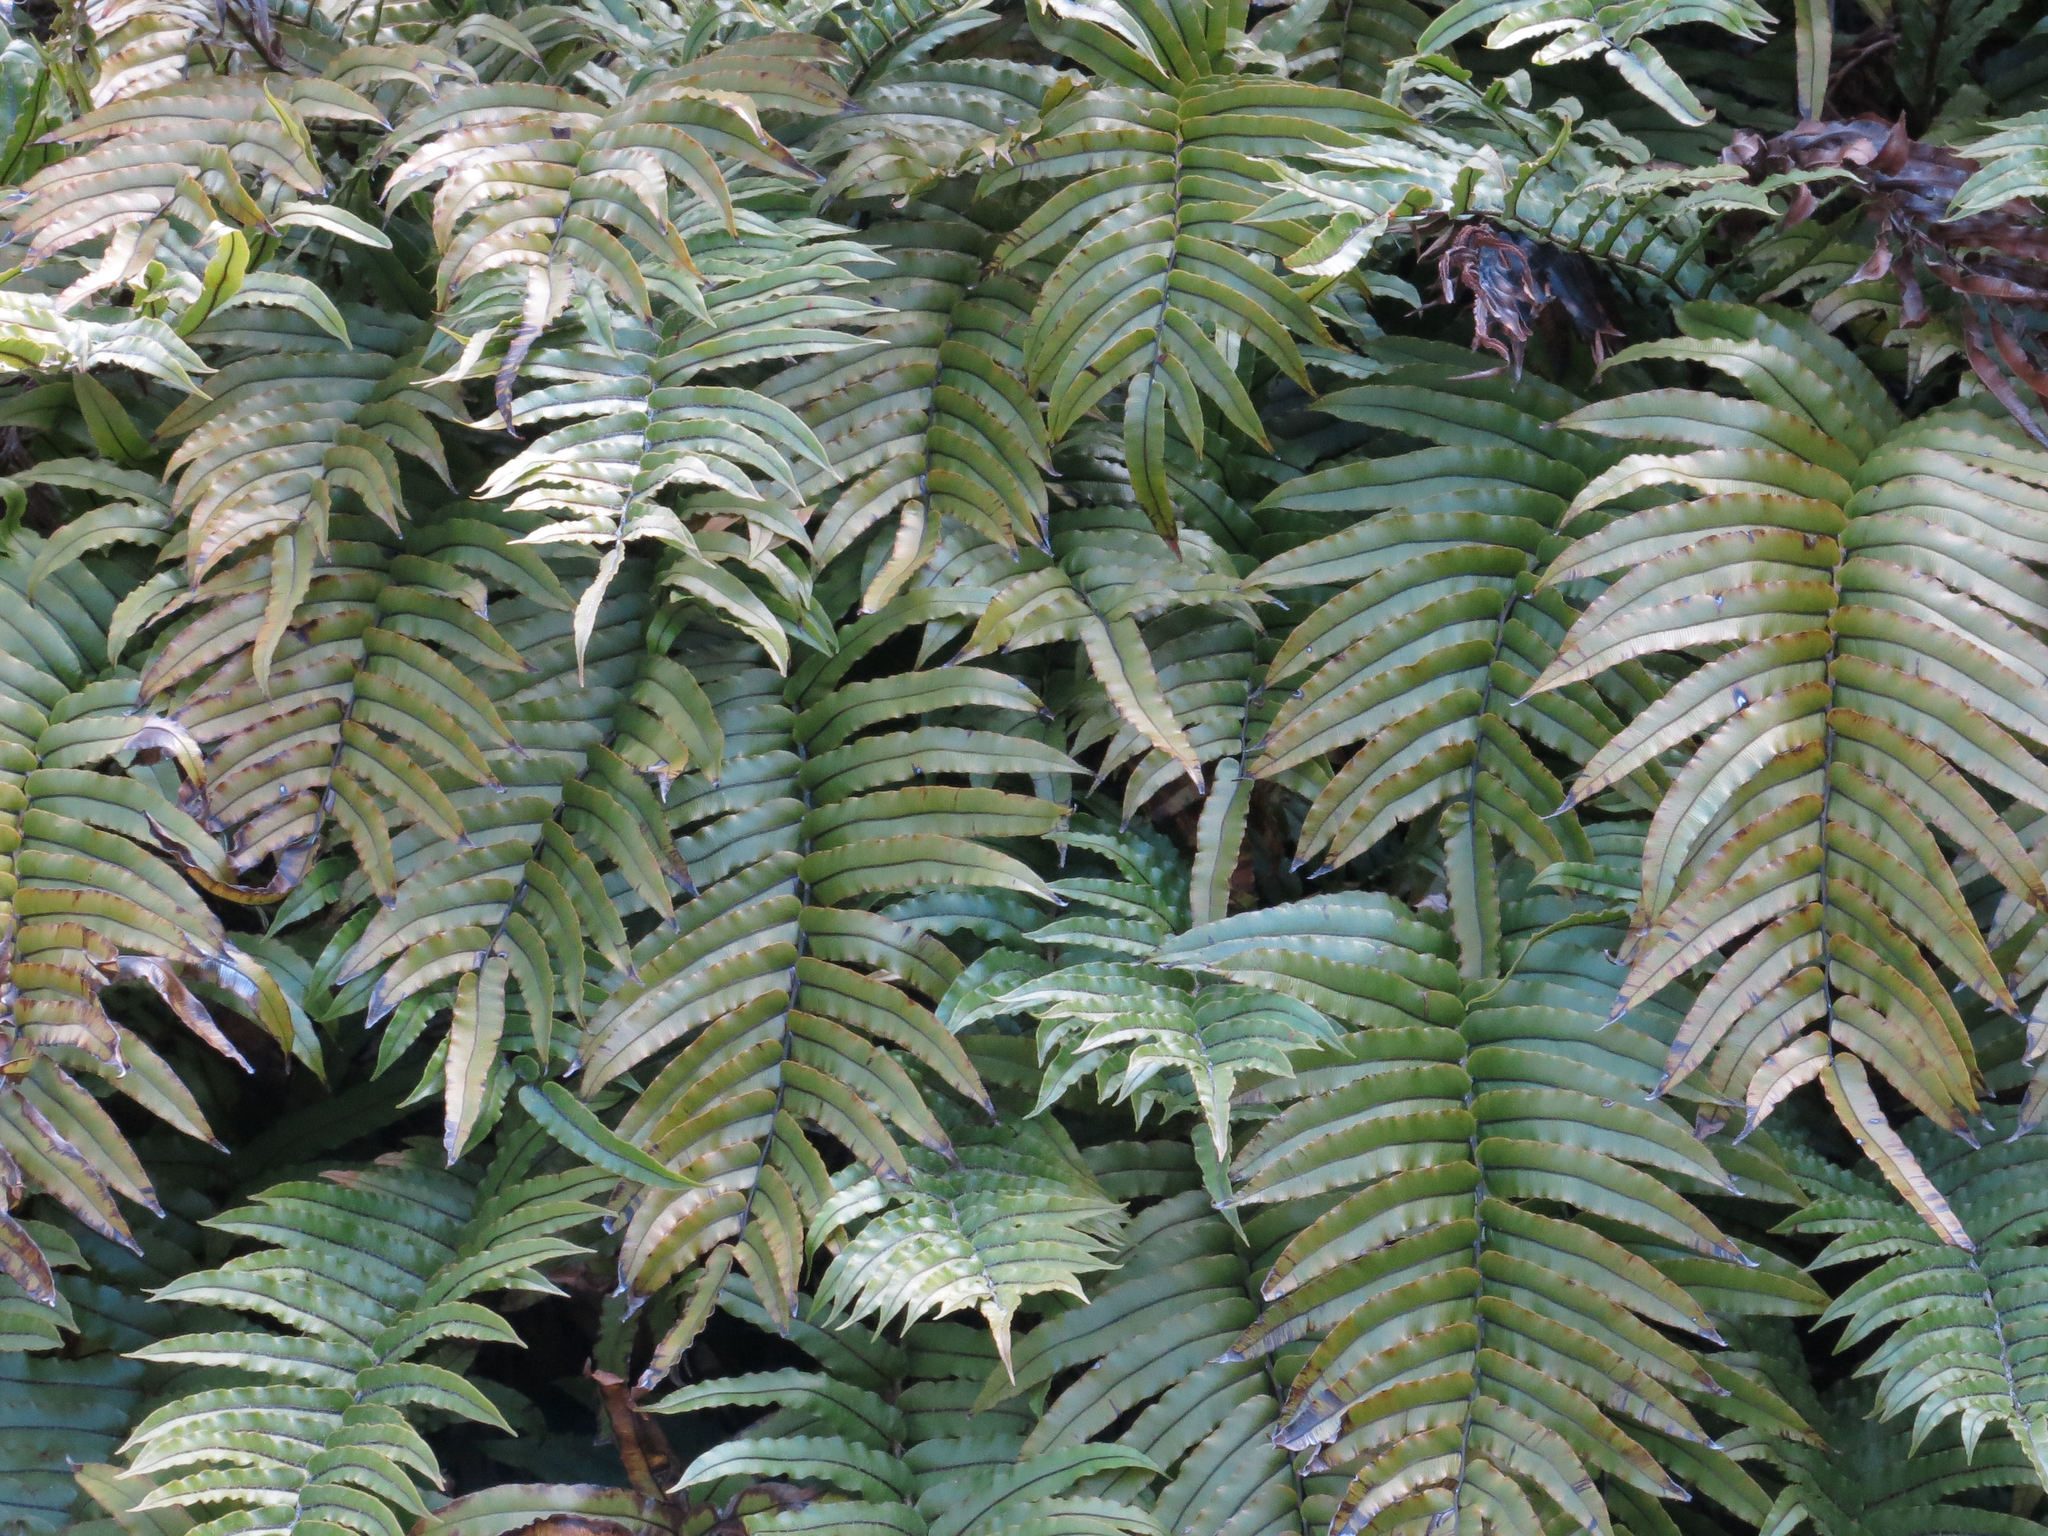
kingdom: Plantae
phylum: Tracheophyta
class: Polypodiopsida
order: Polypodiales
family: Blechnaceae
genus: Parablechnum
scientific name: Parablechnum montanum
